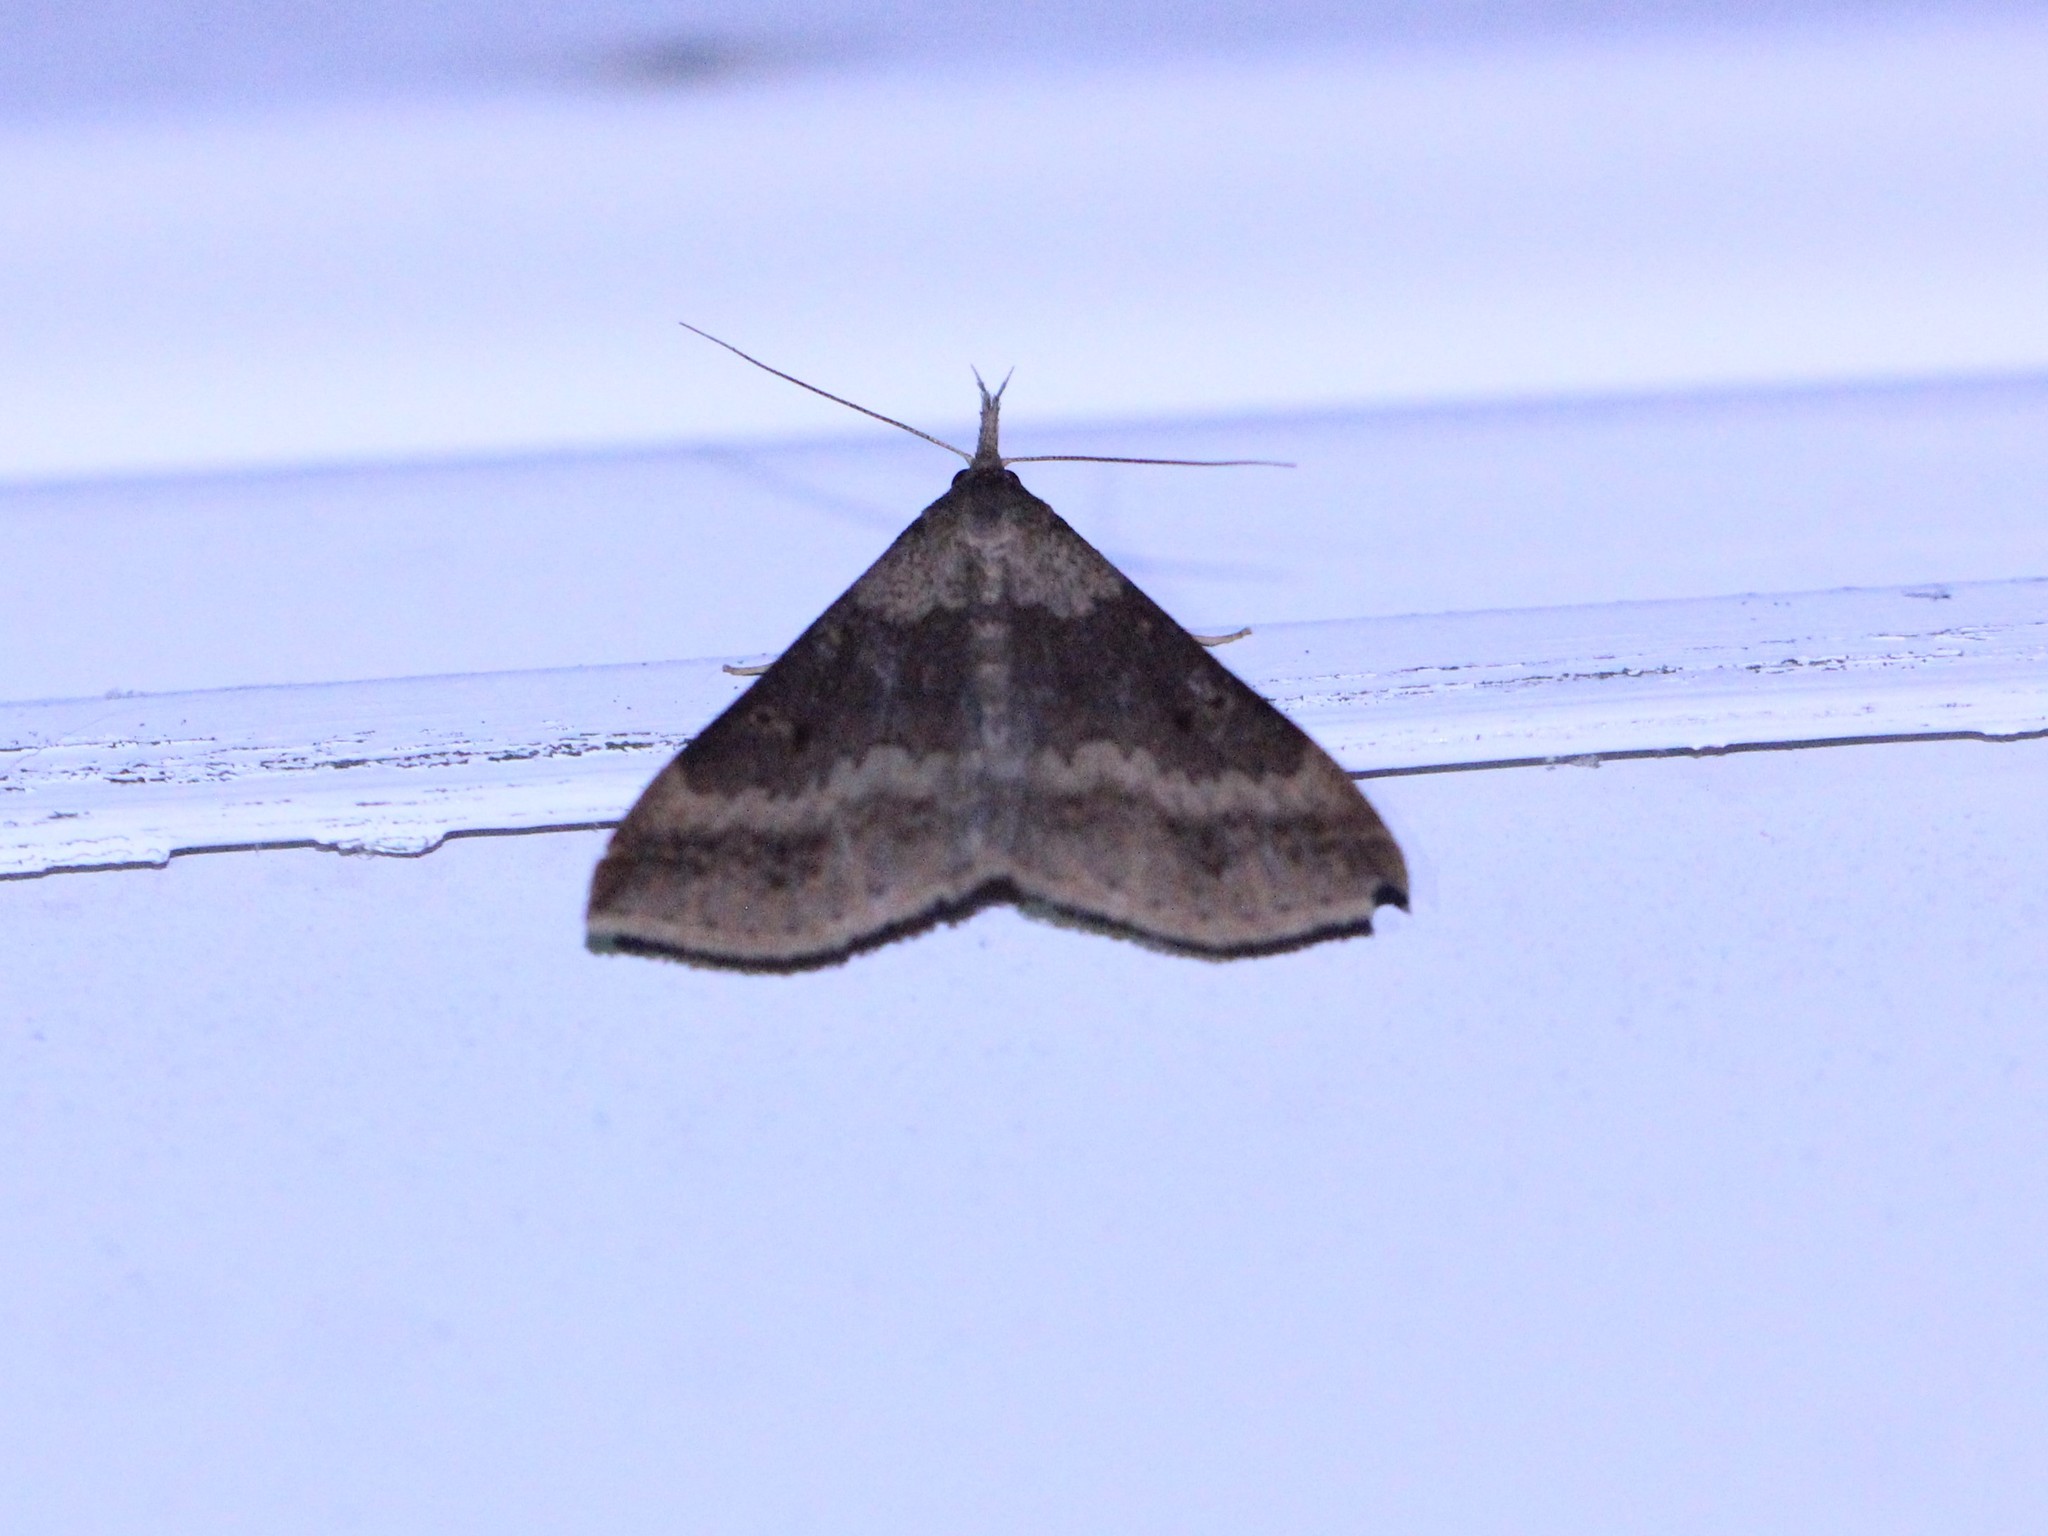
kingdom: Animalia
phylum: Arthropoda
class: Insecta
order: Lepidoptera
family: Erebidae
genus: Renia
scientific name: Renia discoloralis
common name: Discolored renia moth
